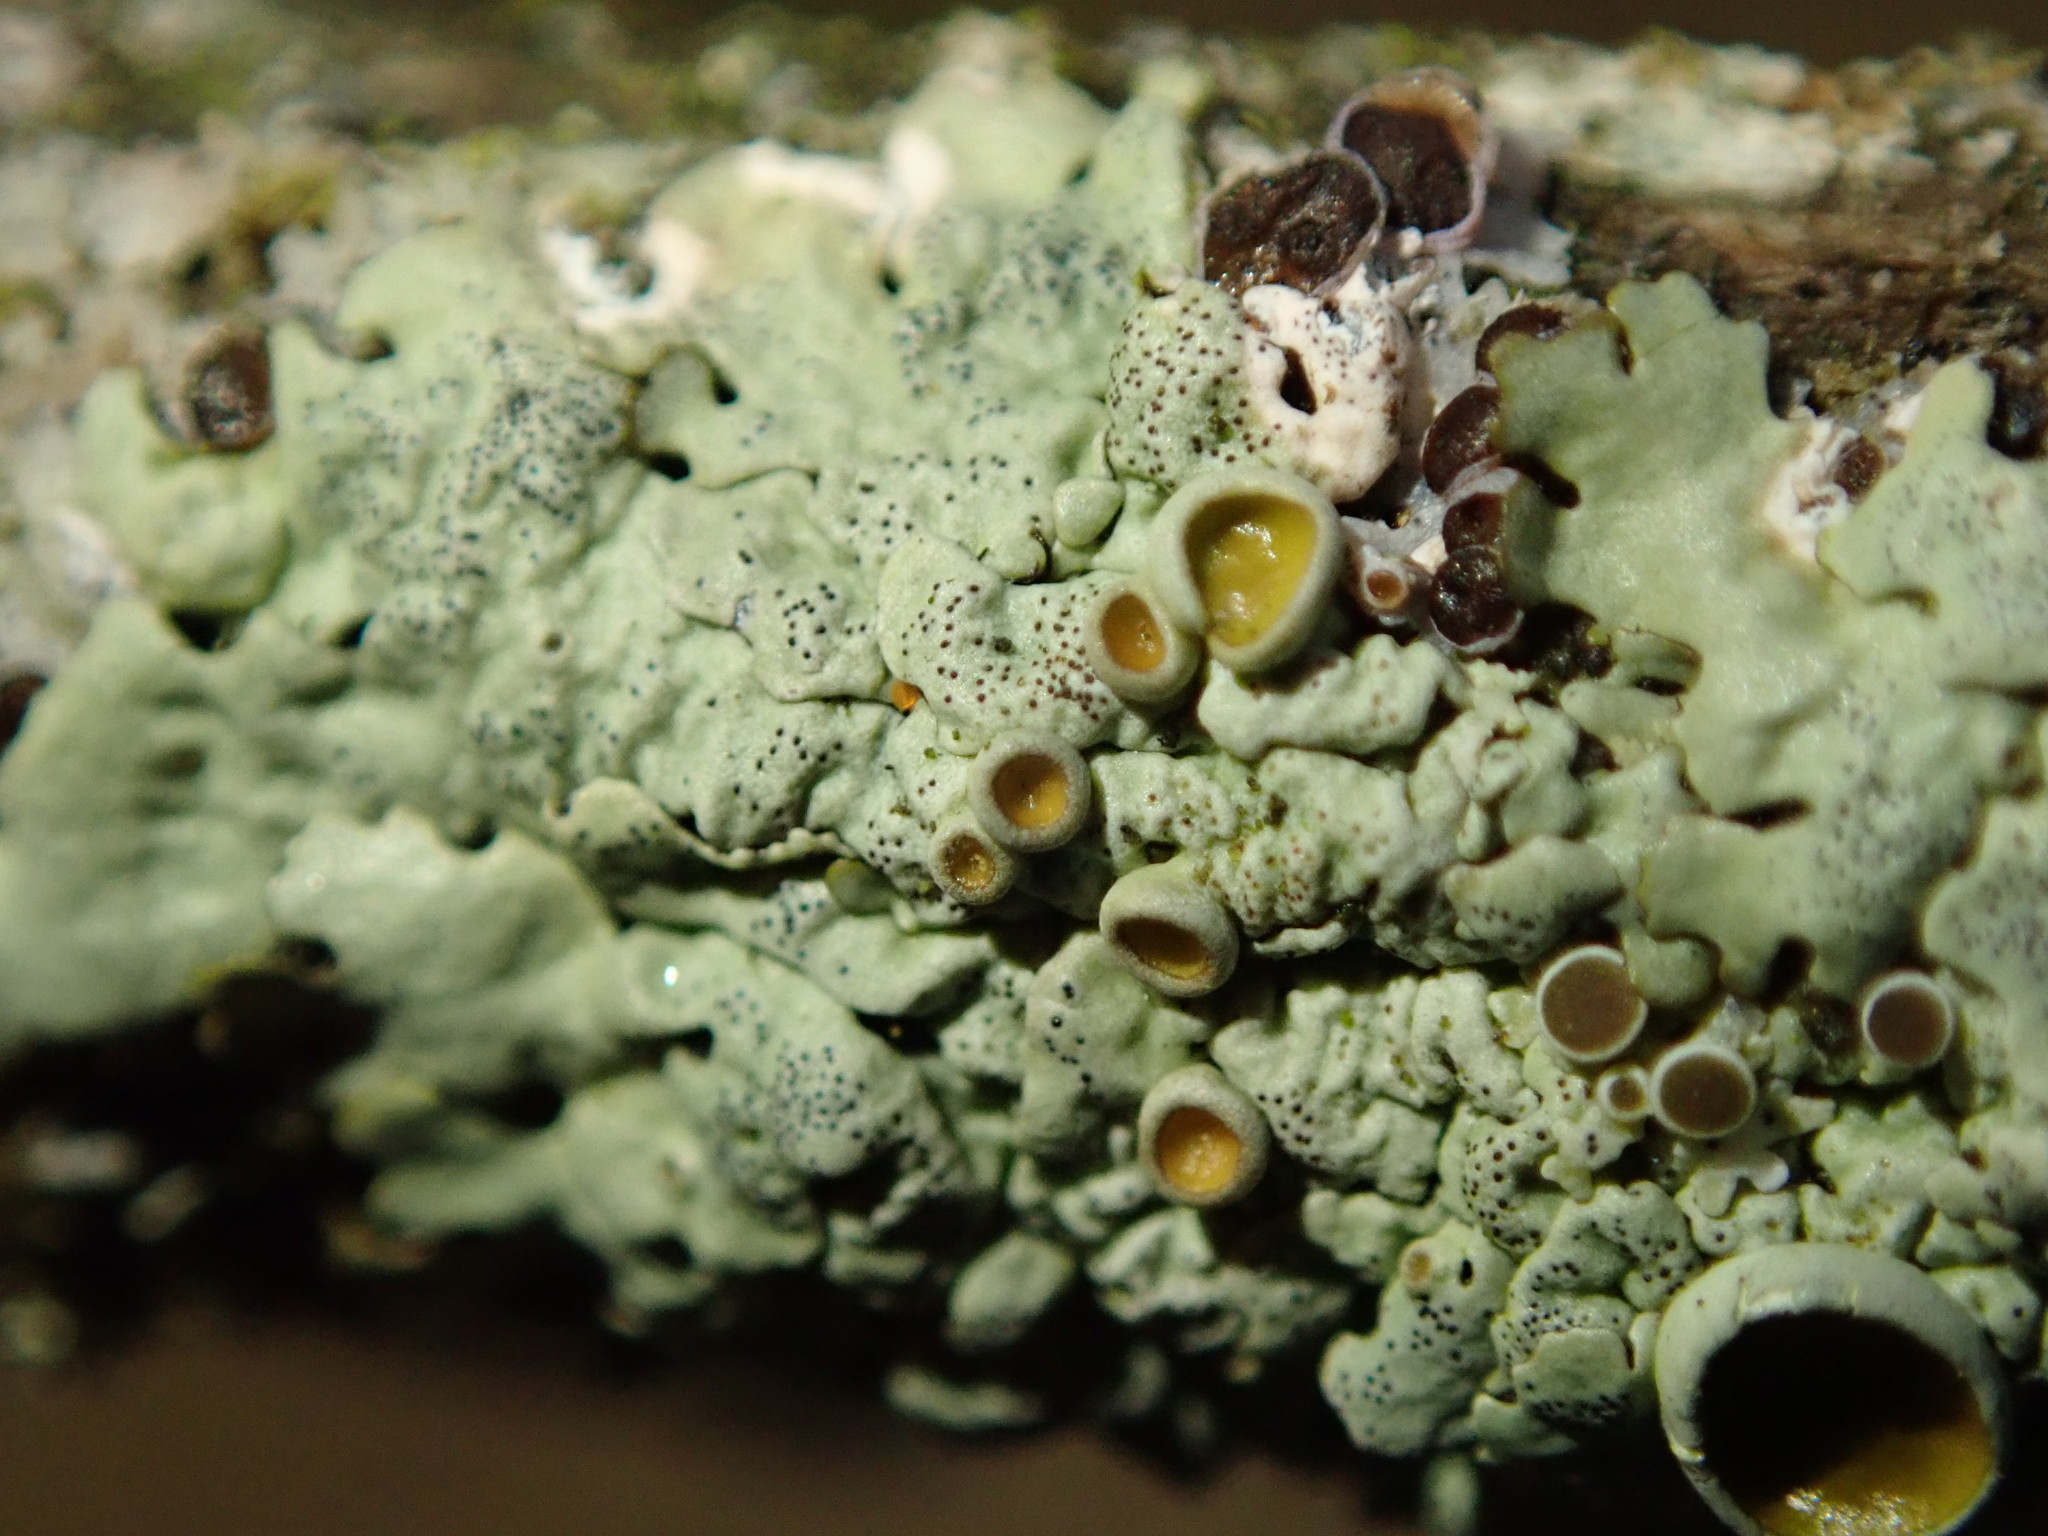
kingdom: Fungi
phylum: Ascomycota
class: Lecanoromycetes
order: Lecanorales
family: Parmeliaceae
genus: Myelochroa
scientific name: Myelochroa galbina
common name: Smooth axil-bristle lichen
